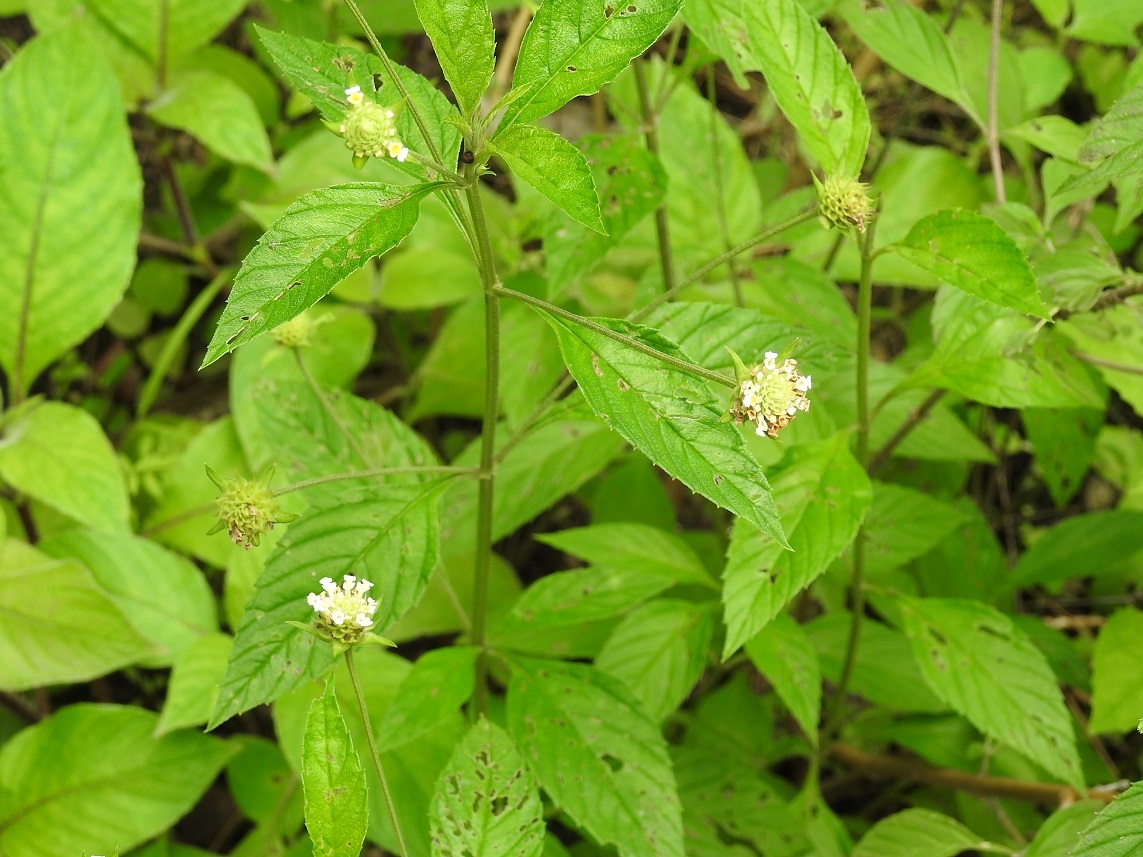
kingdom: Plantae
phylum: Tracheophyta
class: Magnoliopsida
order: Lamiales
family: Verbenaceae
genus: Lippia
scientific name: Lippia dulcis
